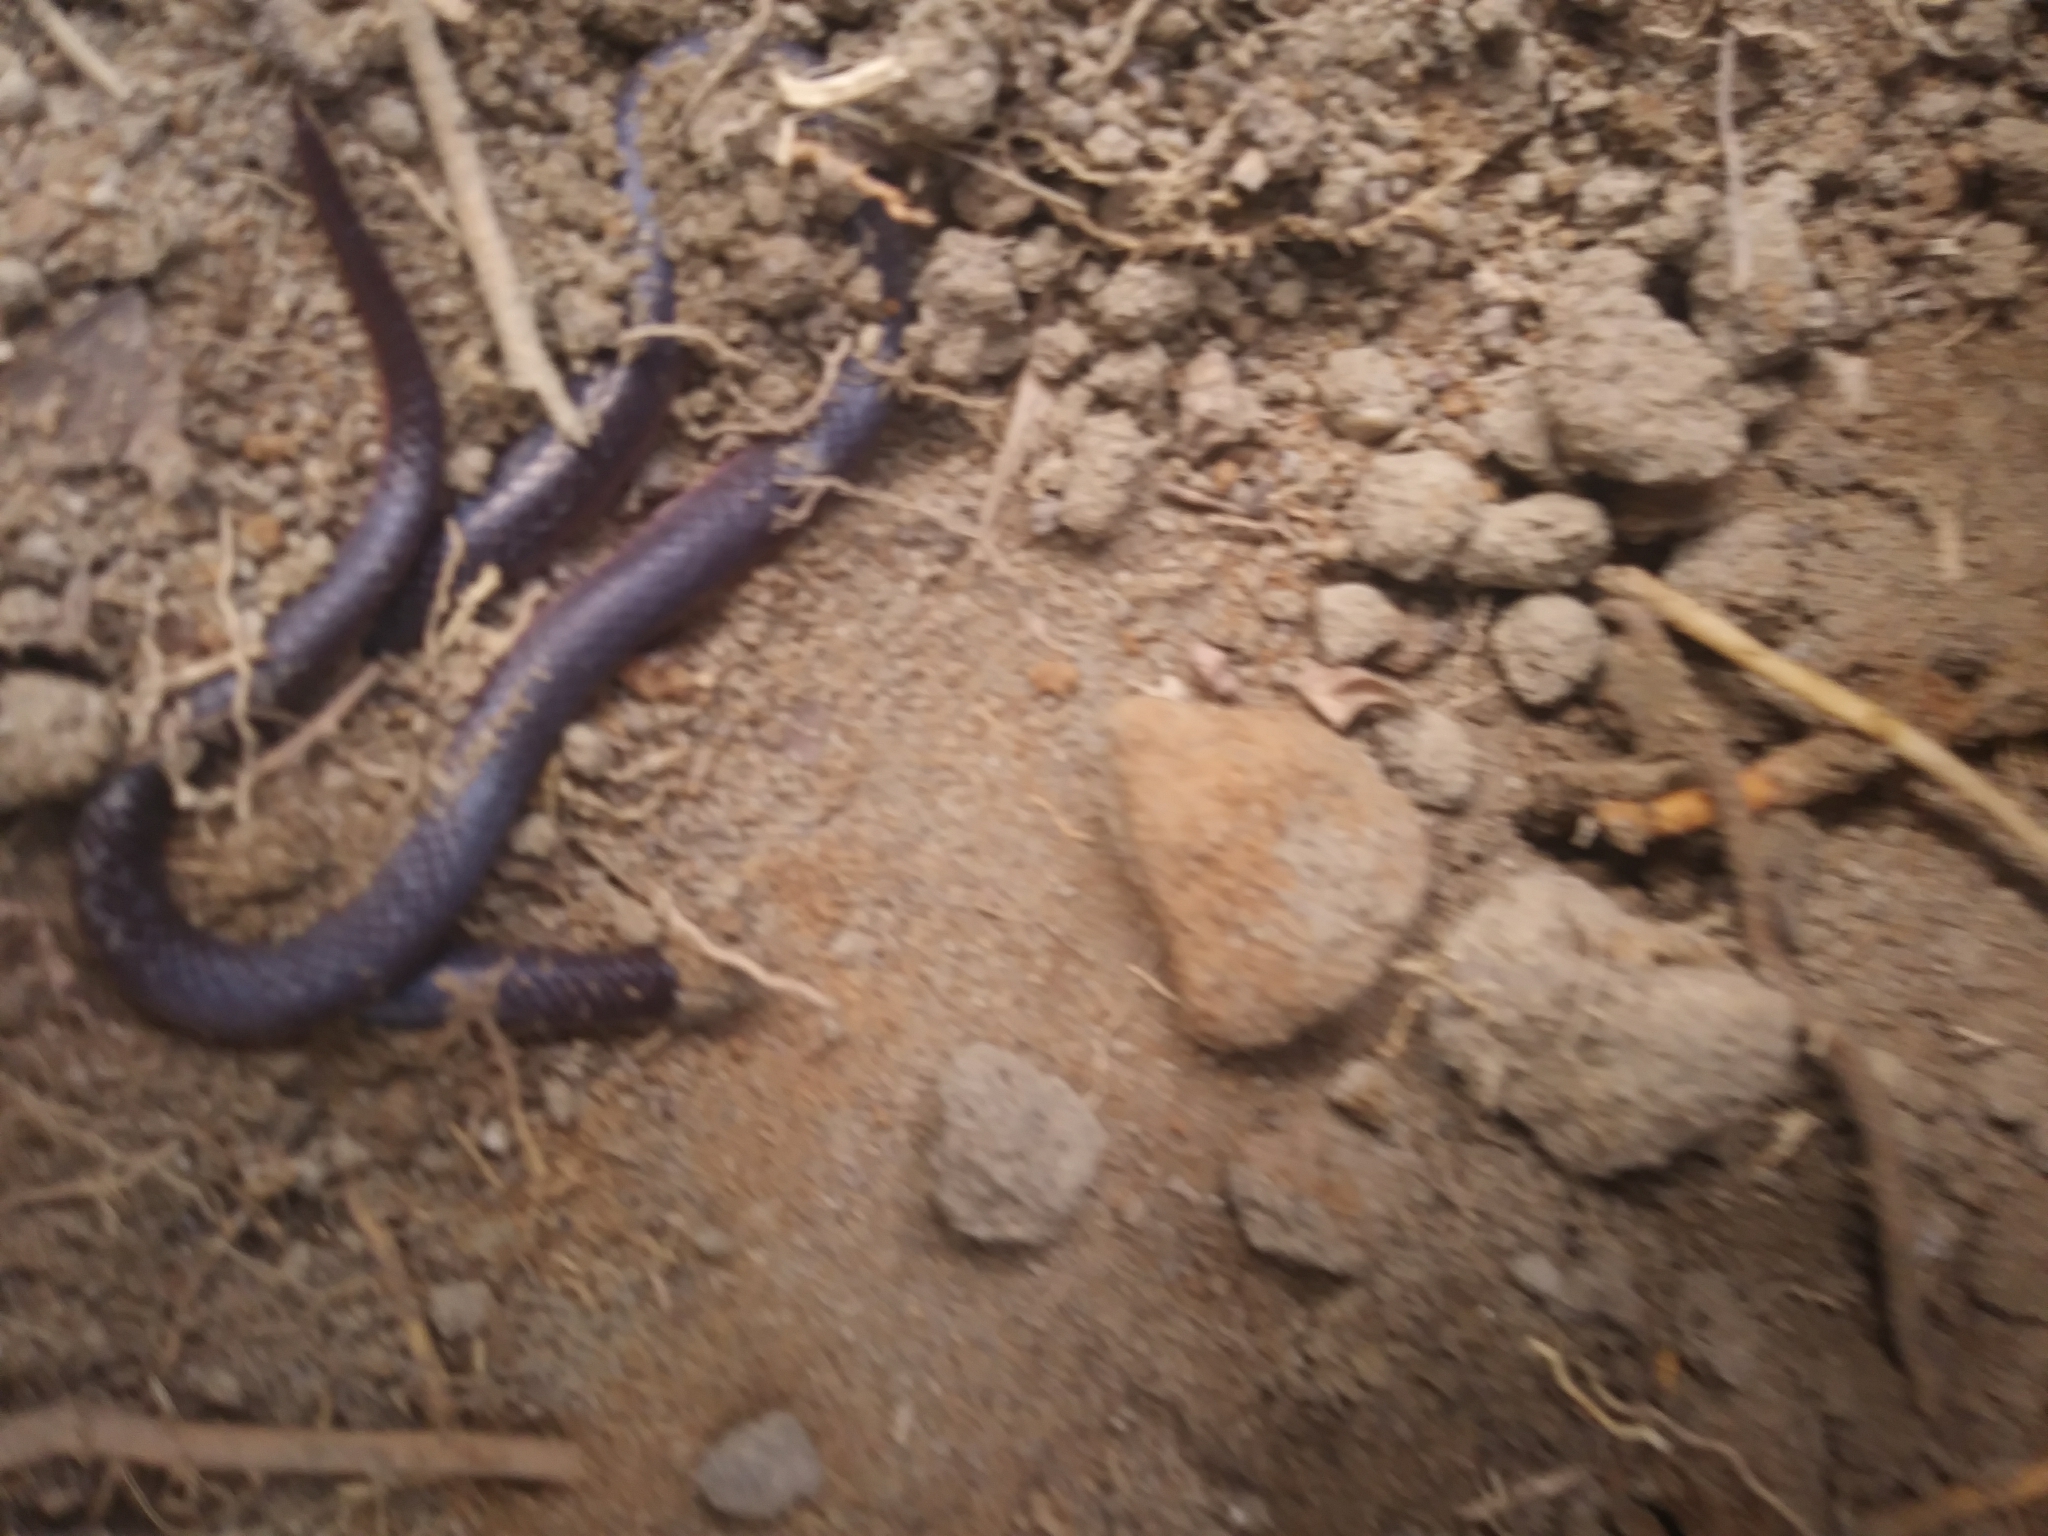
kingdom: Animalia
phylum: Chordata
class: Squamata
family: Colubridae
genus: Carphophis
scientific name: Carphophis amoenus
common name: Eastern worm snake
